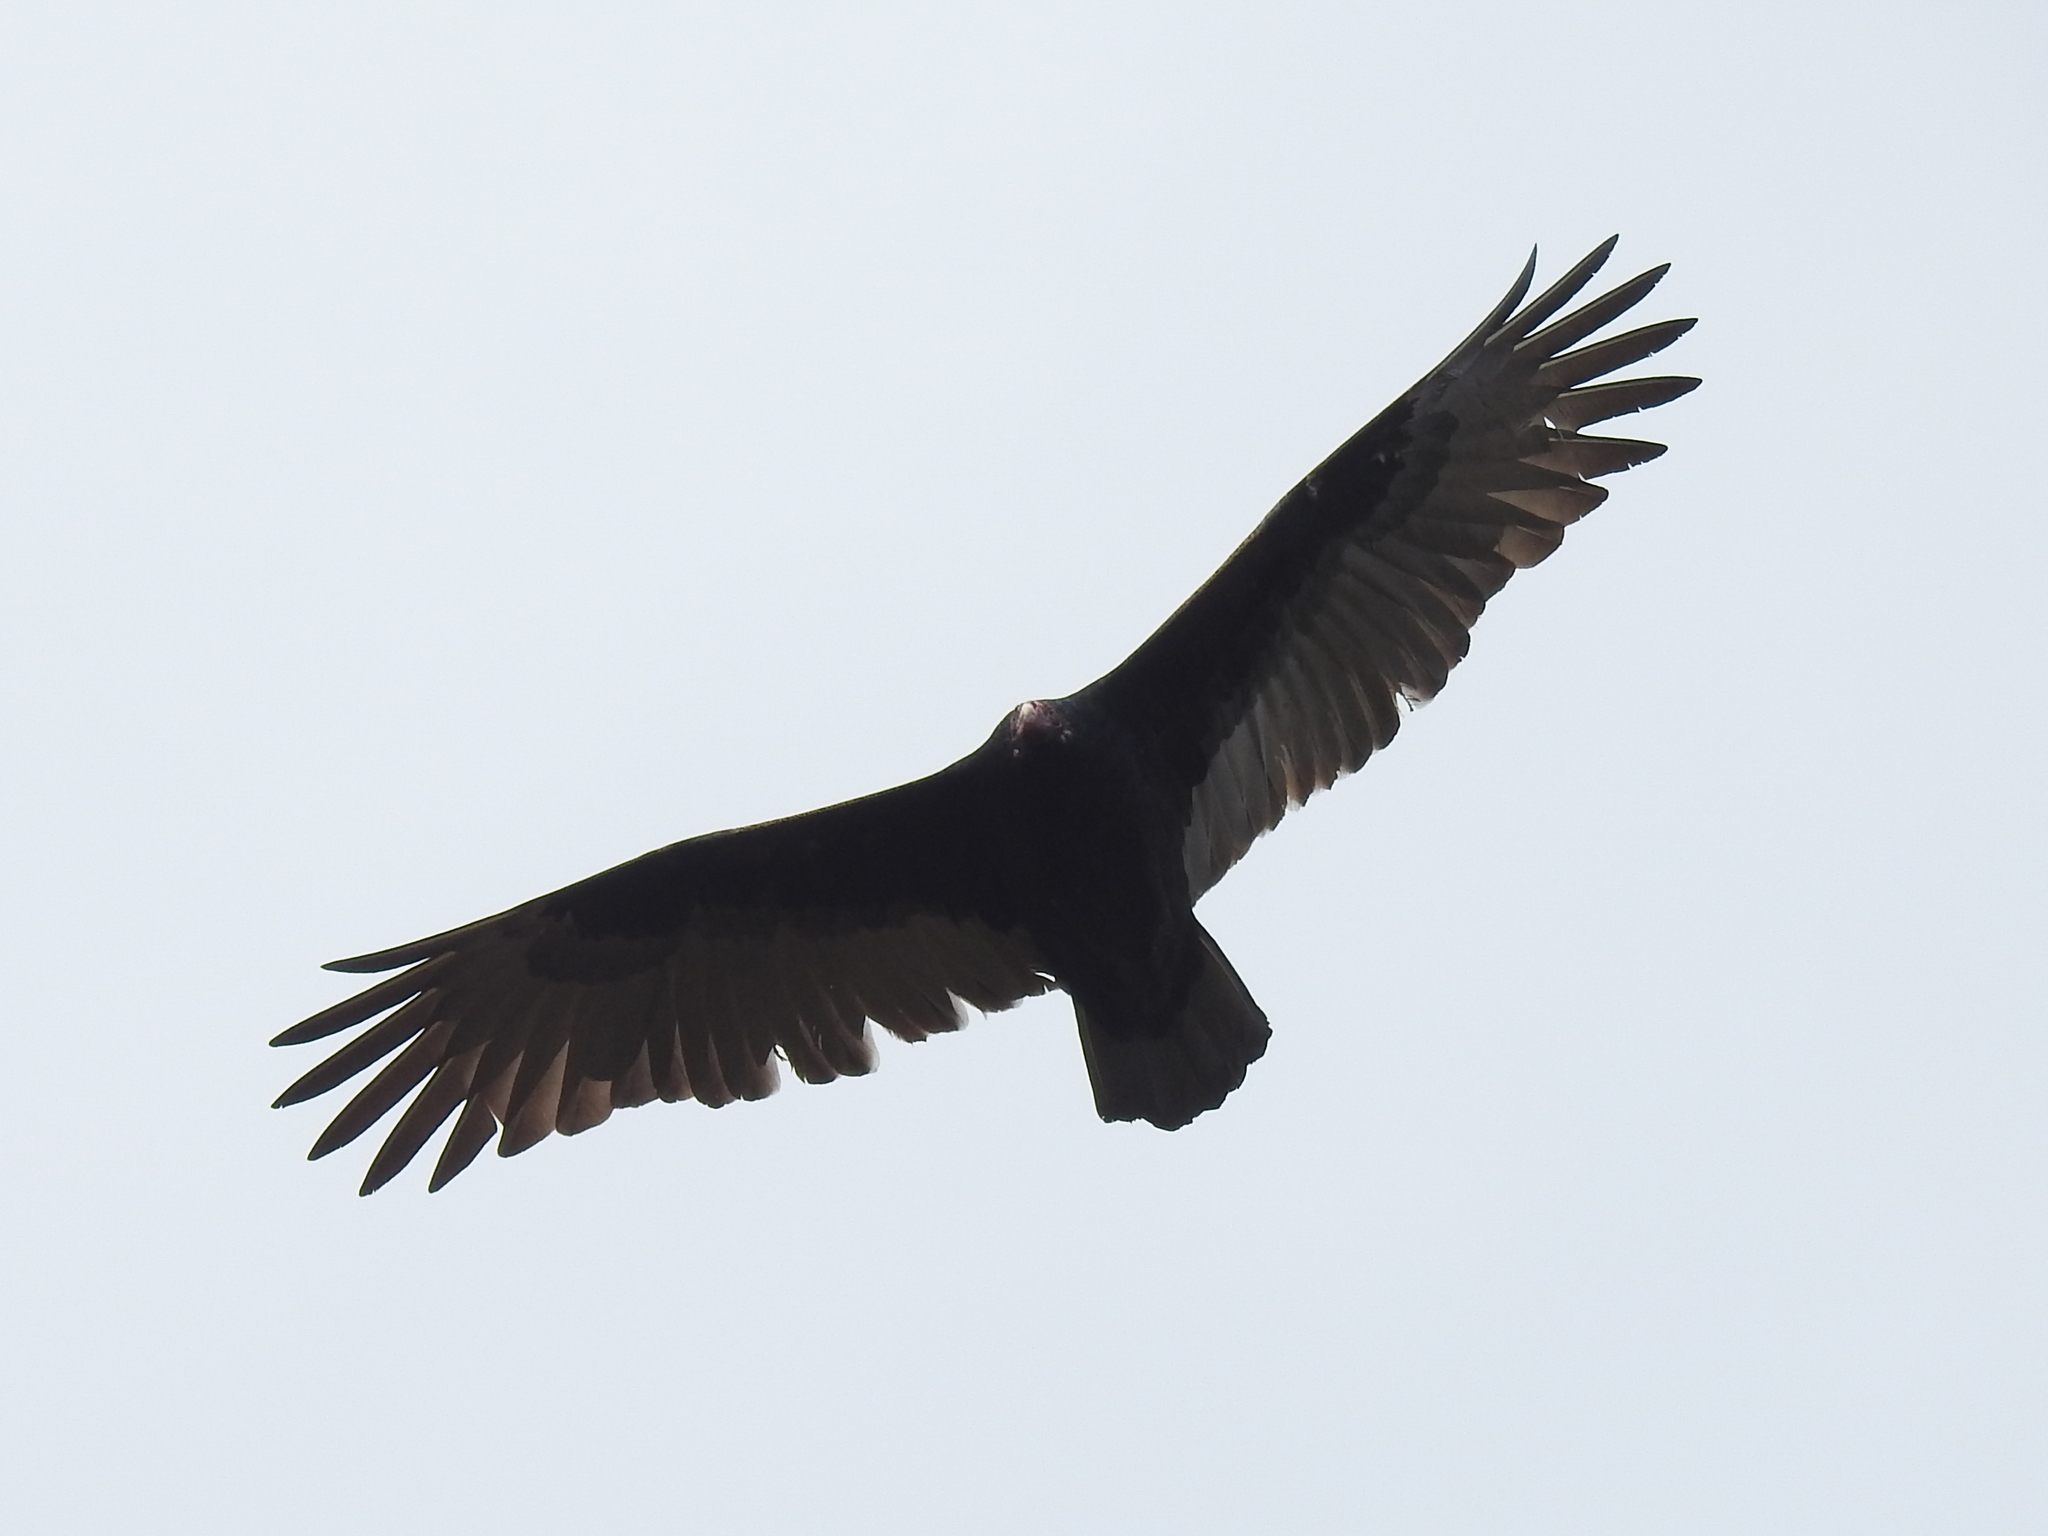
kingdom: Animalia
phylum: Chordata
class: Aves
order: Accipitriformes
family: Cathartidae
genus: Cathartes
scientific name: Cathartes aura
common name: Turkey vulture
